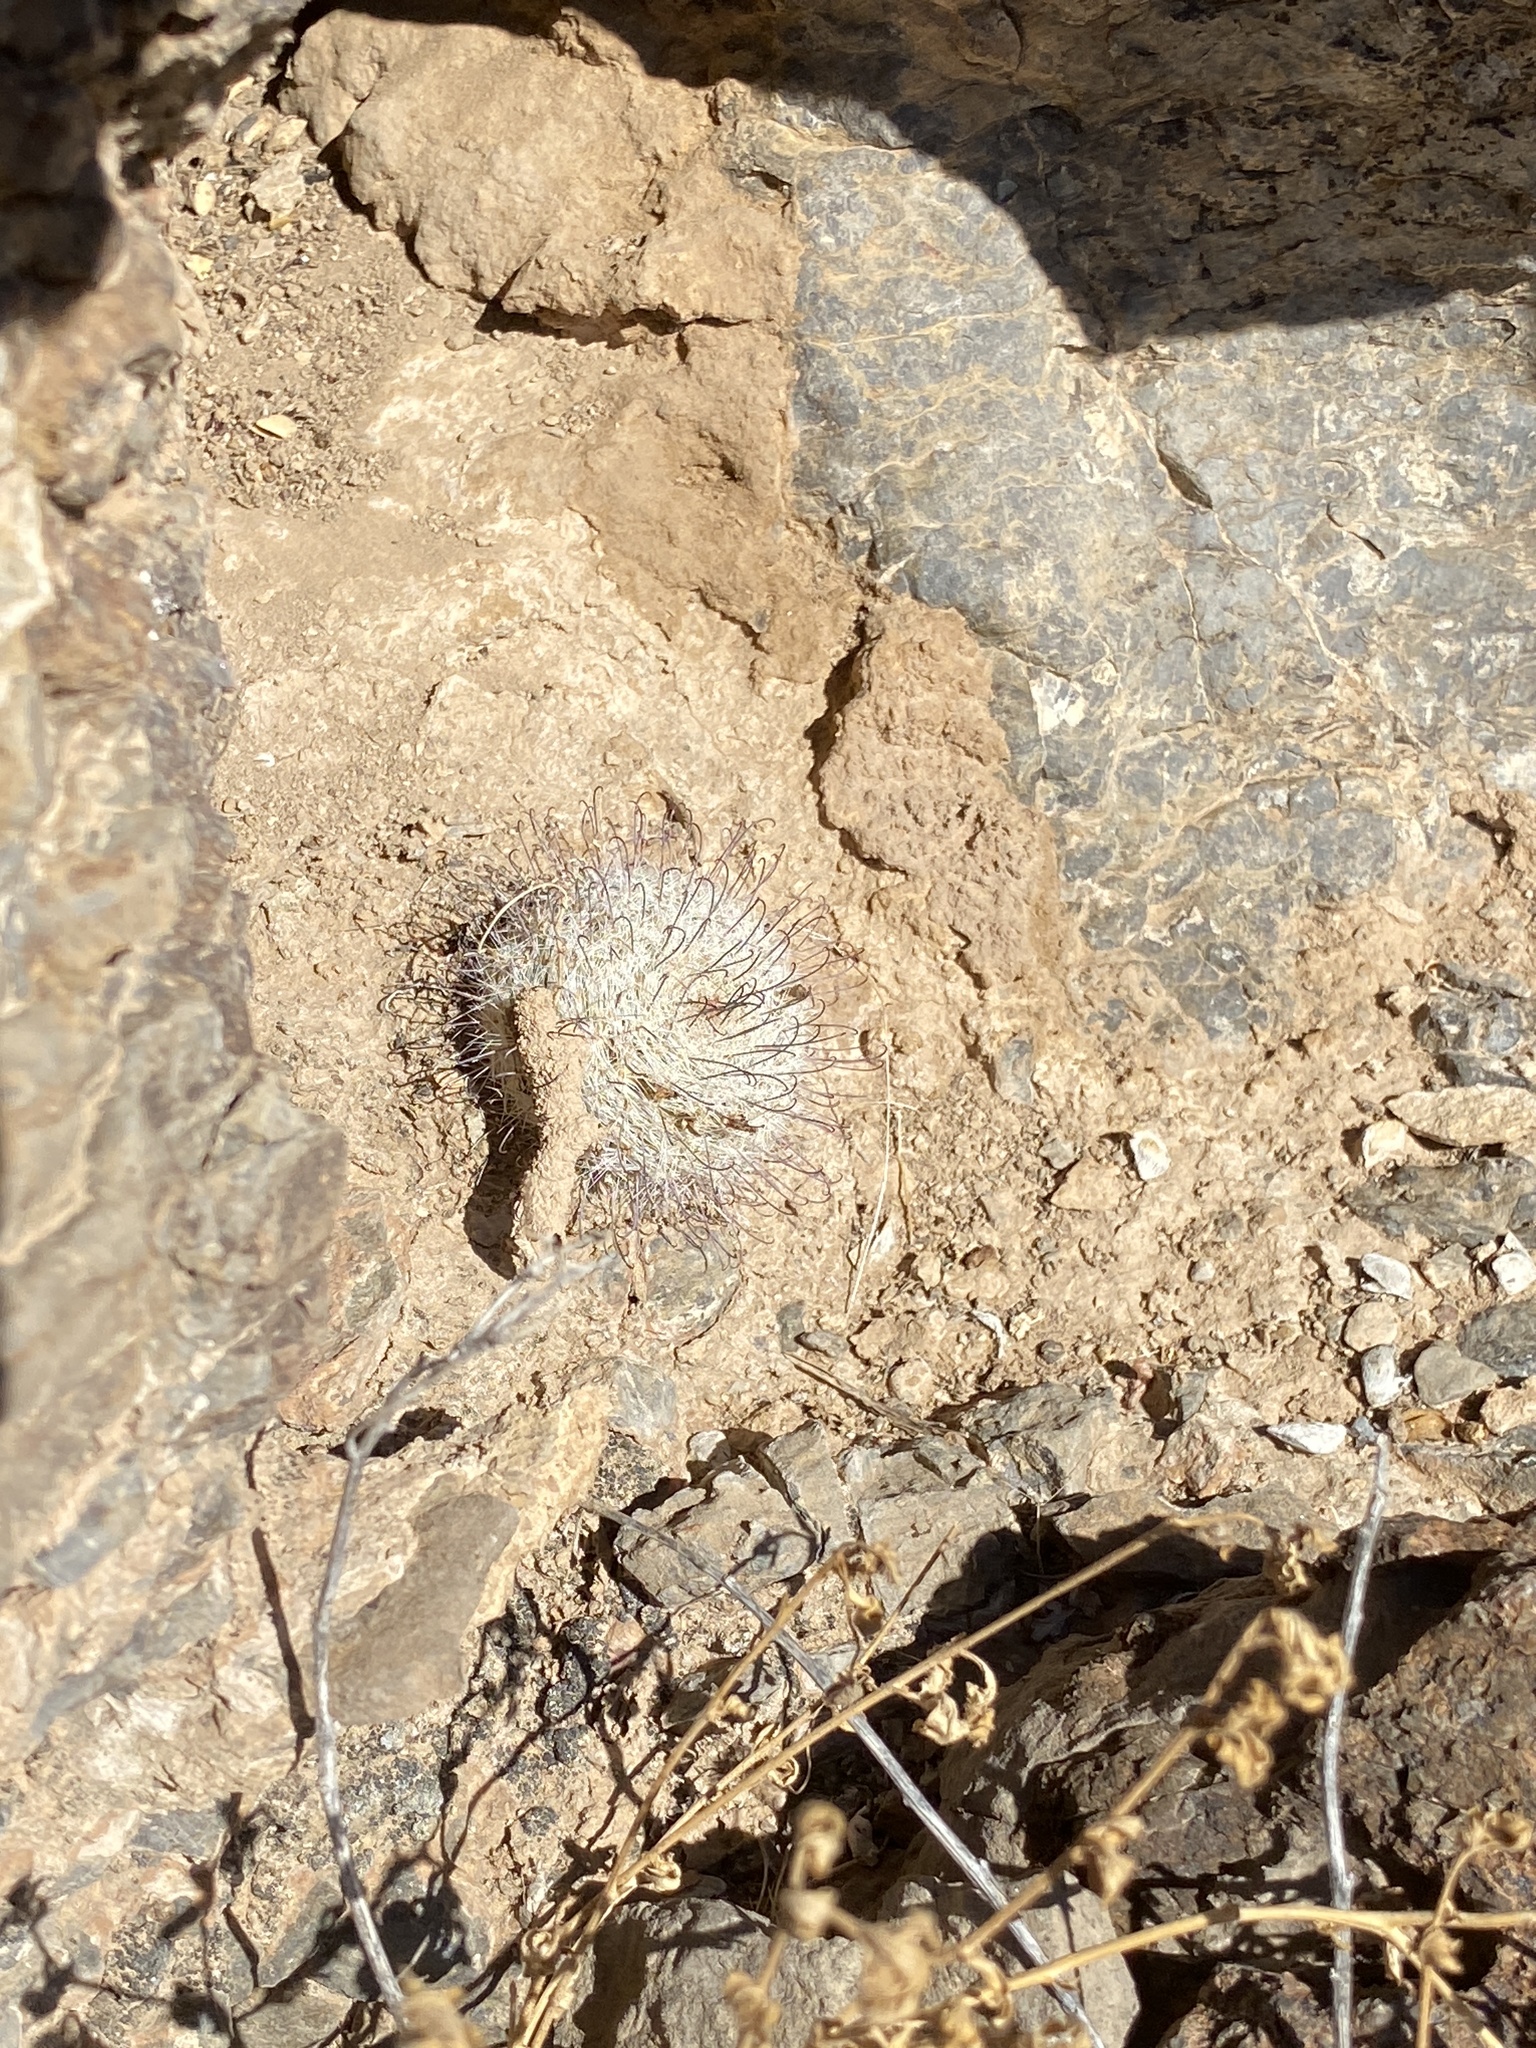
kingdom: Plantae
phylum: Tracheophyta
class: Magnoliopsida
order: Caryophyllales
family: Cactaceae
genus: Cochemiea
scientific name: Cochemiea grahamii
